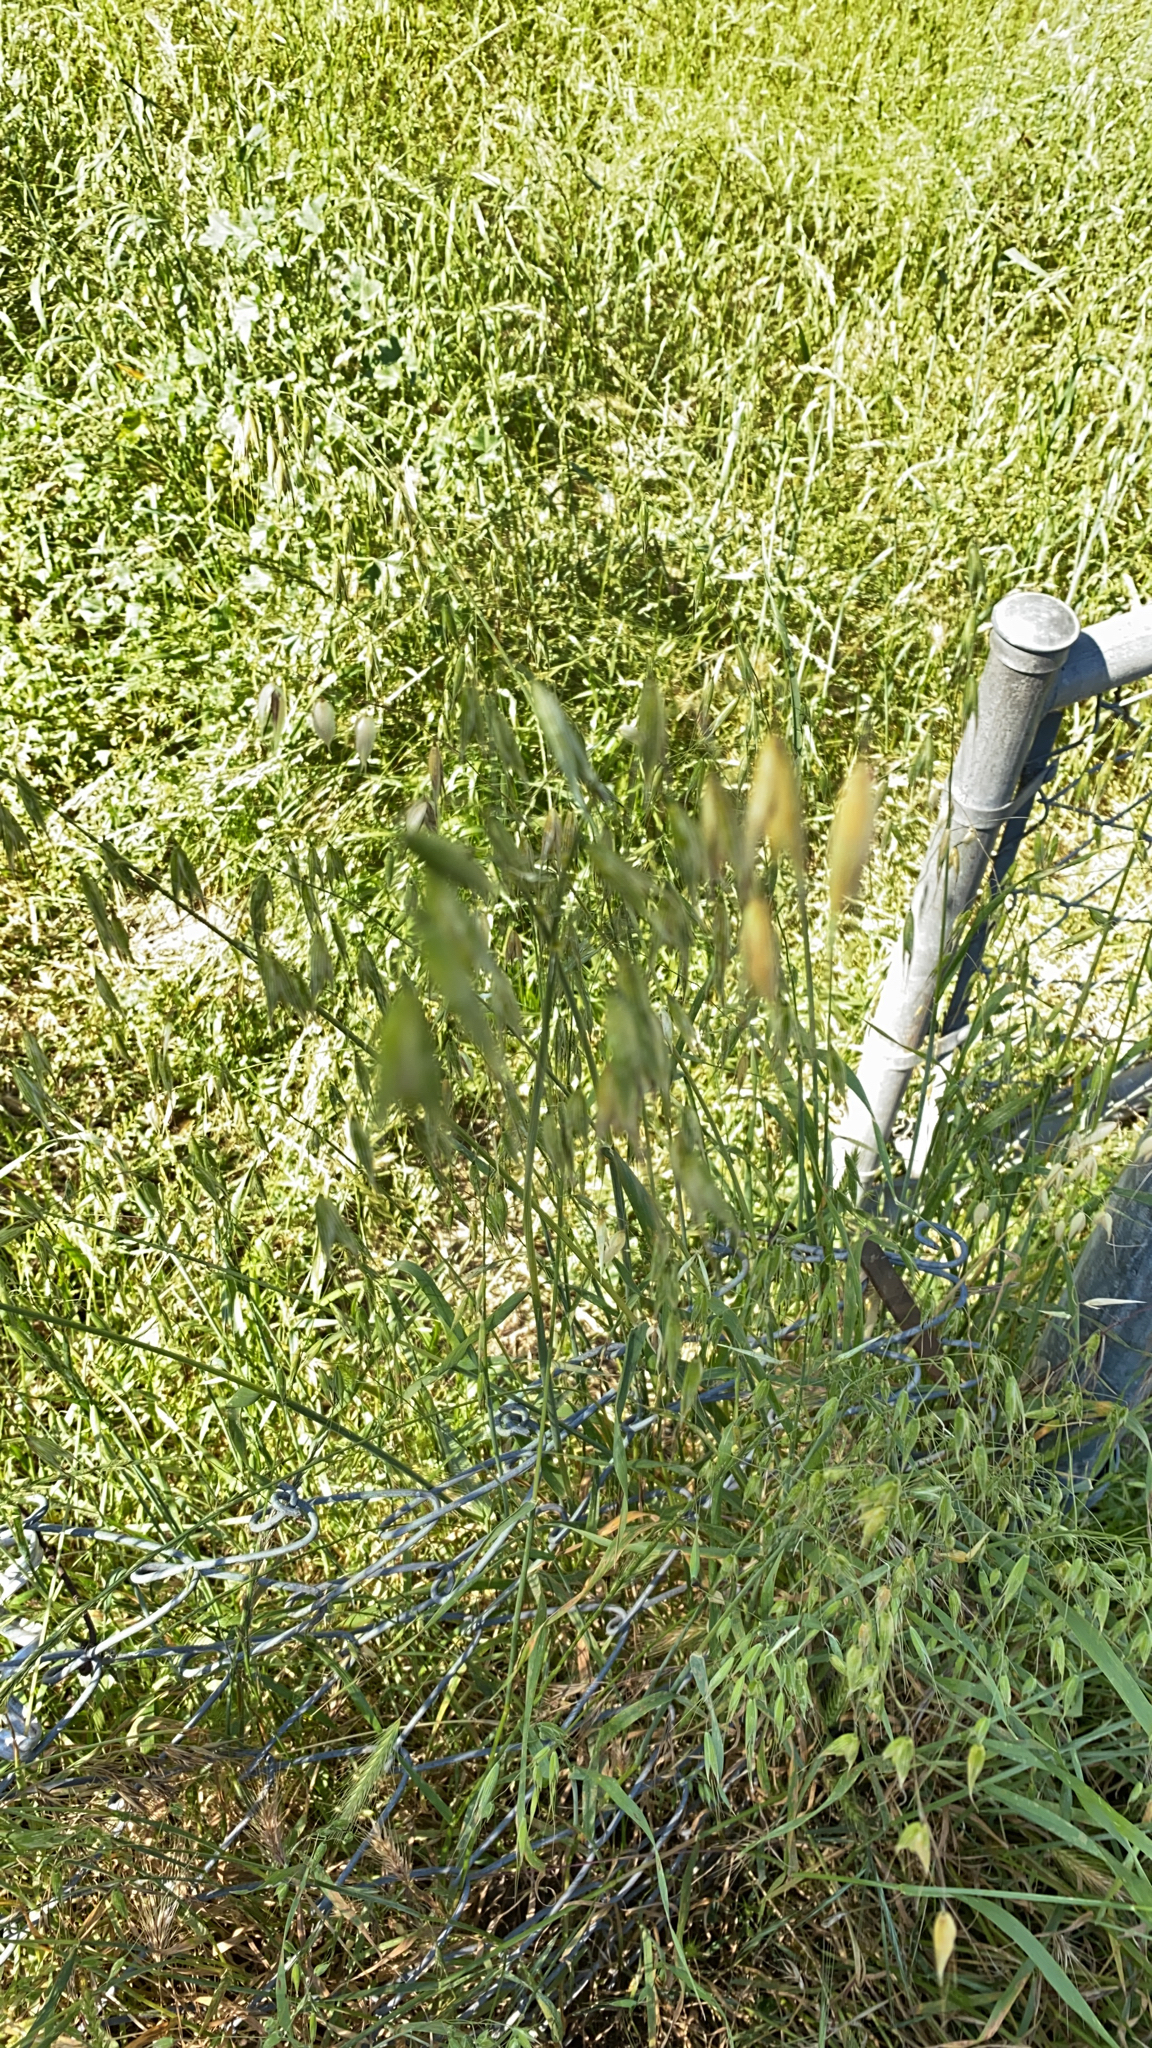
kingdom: Plantae
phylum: Tracheophyta
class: Liliopsida
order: Poales
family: Poaceae
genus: Avena
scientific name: Avena fatua
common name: Wild oat
